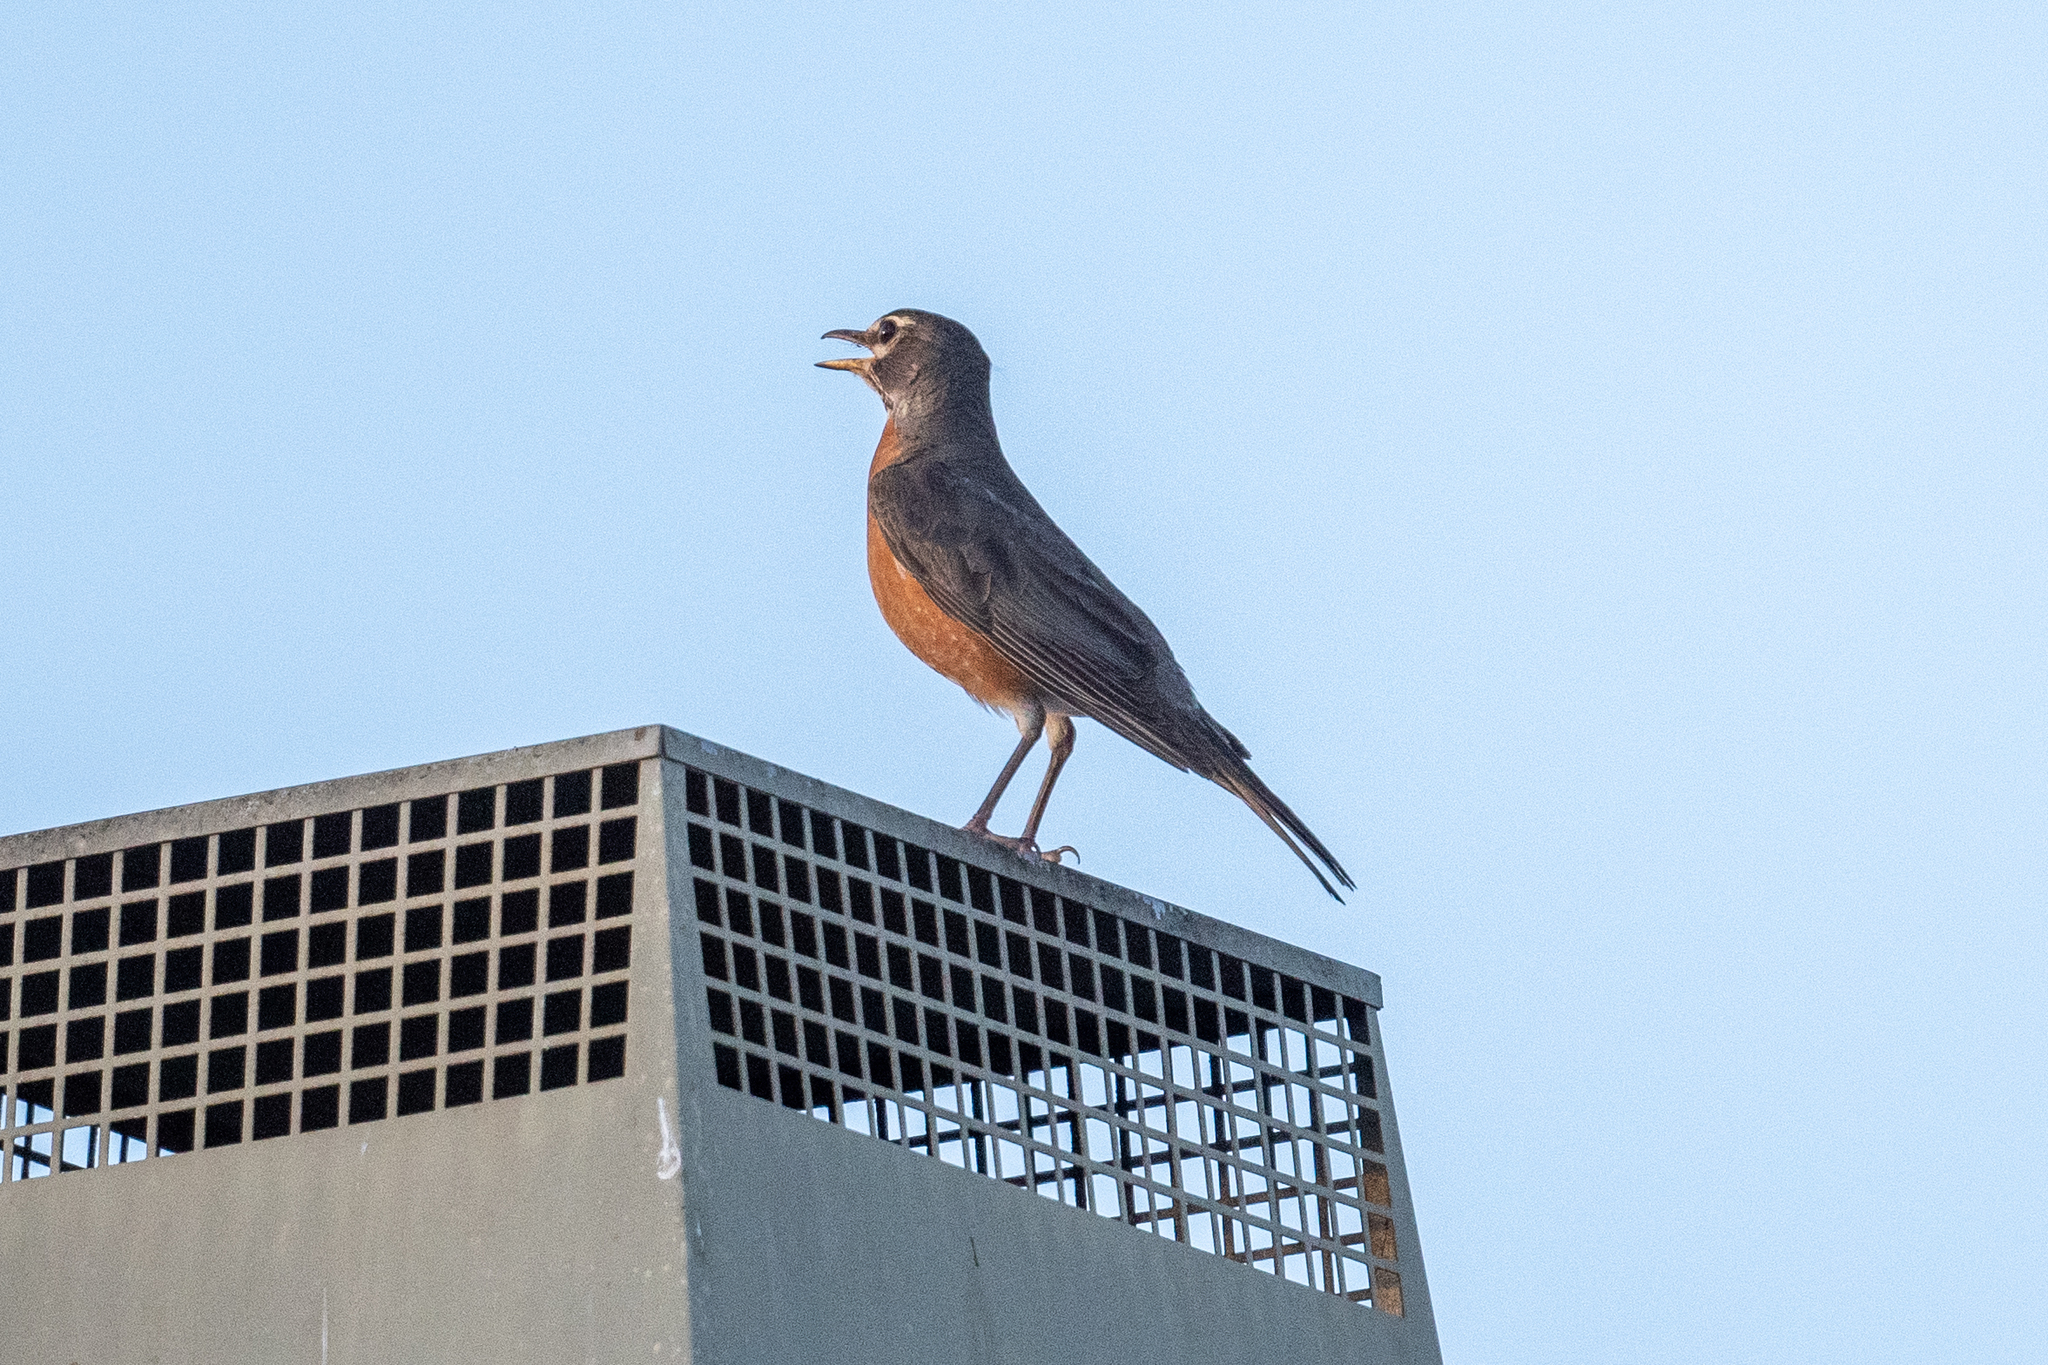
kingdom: Animalia
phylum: Chordata
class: Aves
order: Passeriformes
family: Turdidae
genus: Turdus
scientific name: Turdus migratorius
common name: American robin
